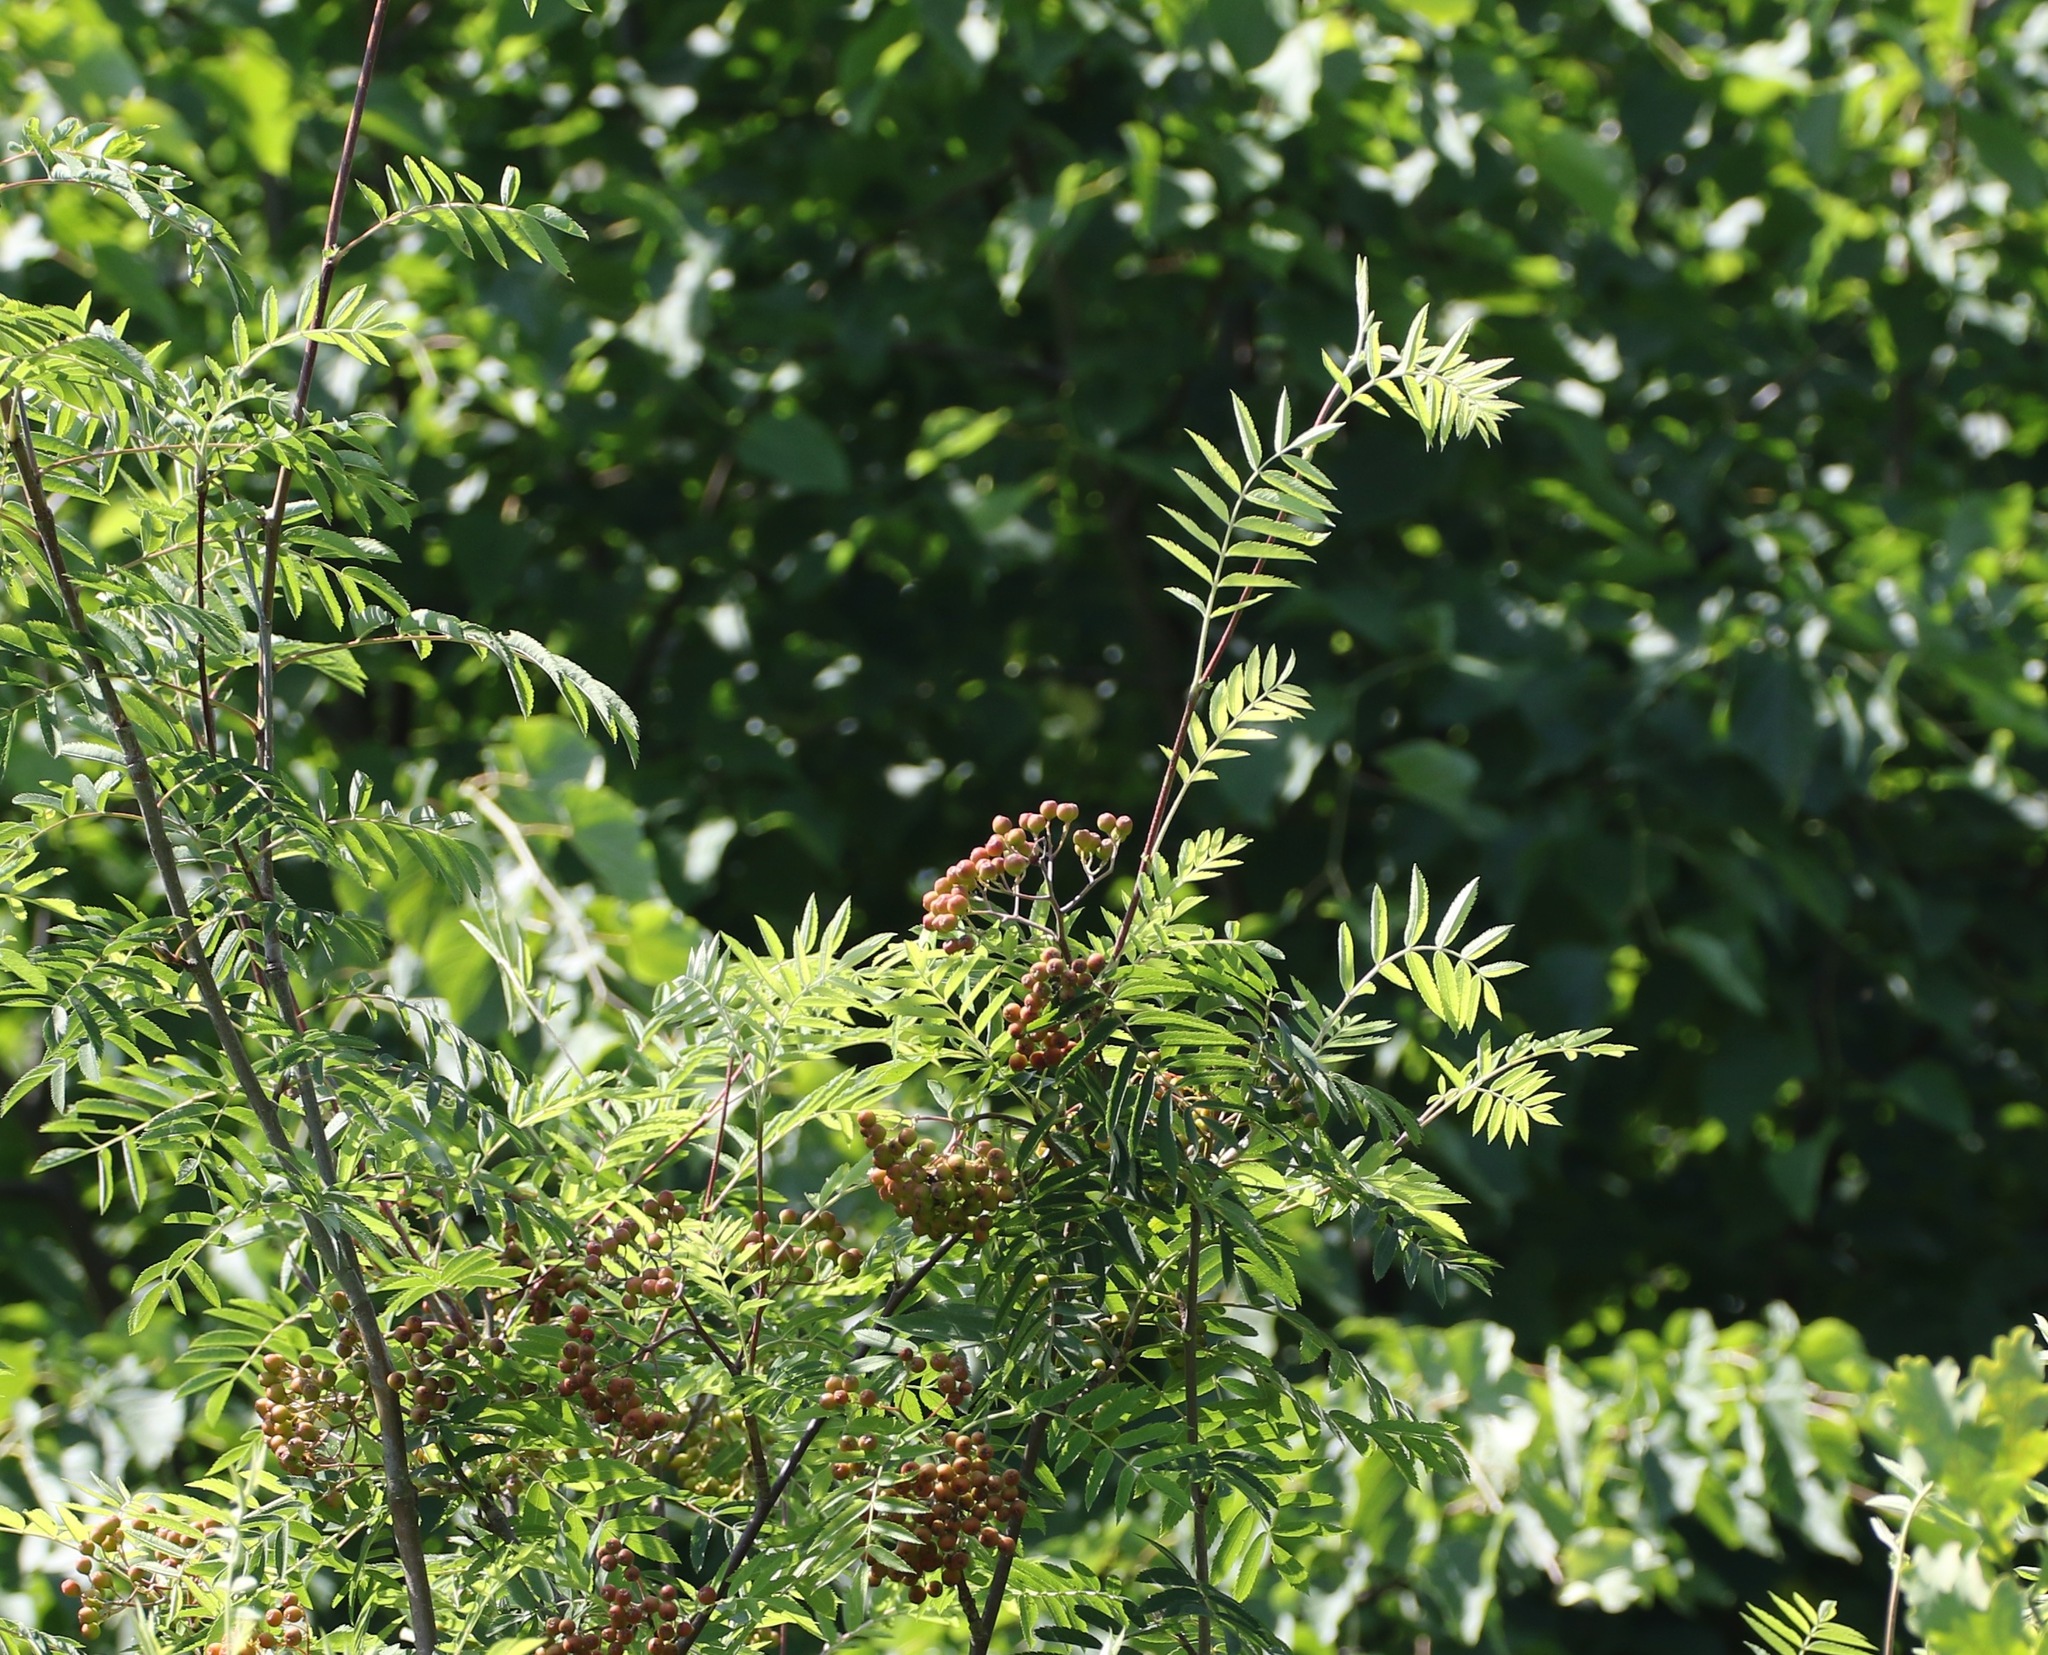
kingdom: Plantae
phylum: Tracheophyta
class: Magnoliopsida
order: Rosales
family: Rosaceae
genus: Sorbus
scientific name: Sorbus aucuparia
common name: Rowan
